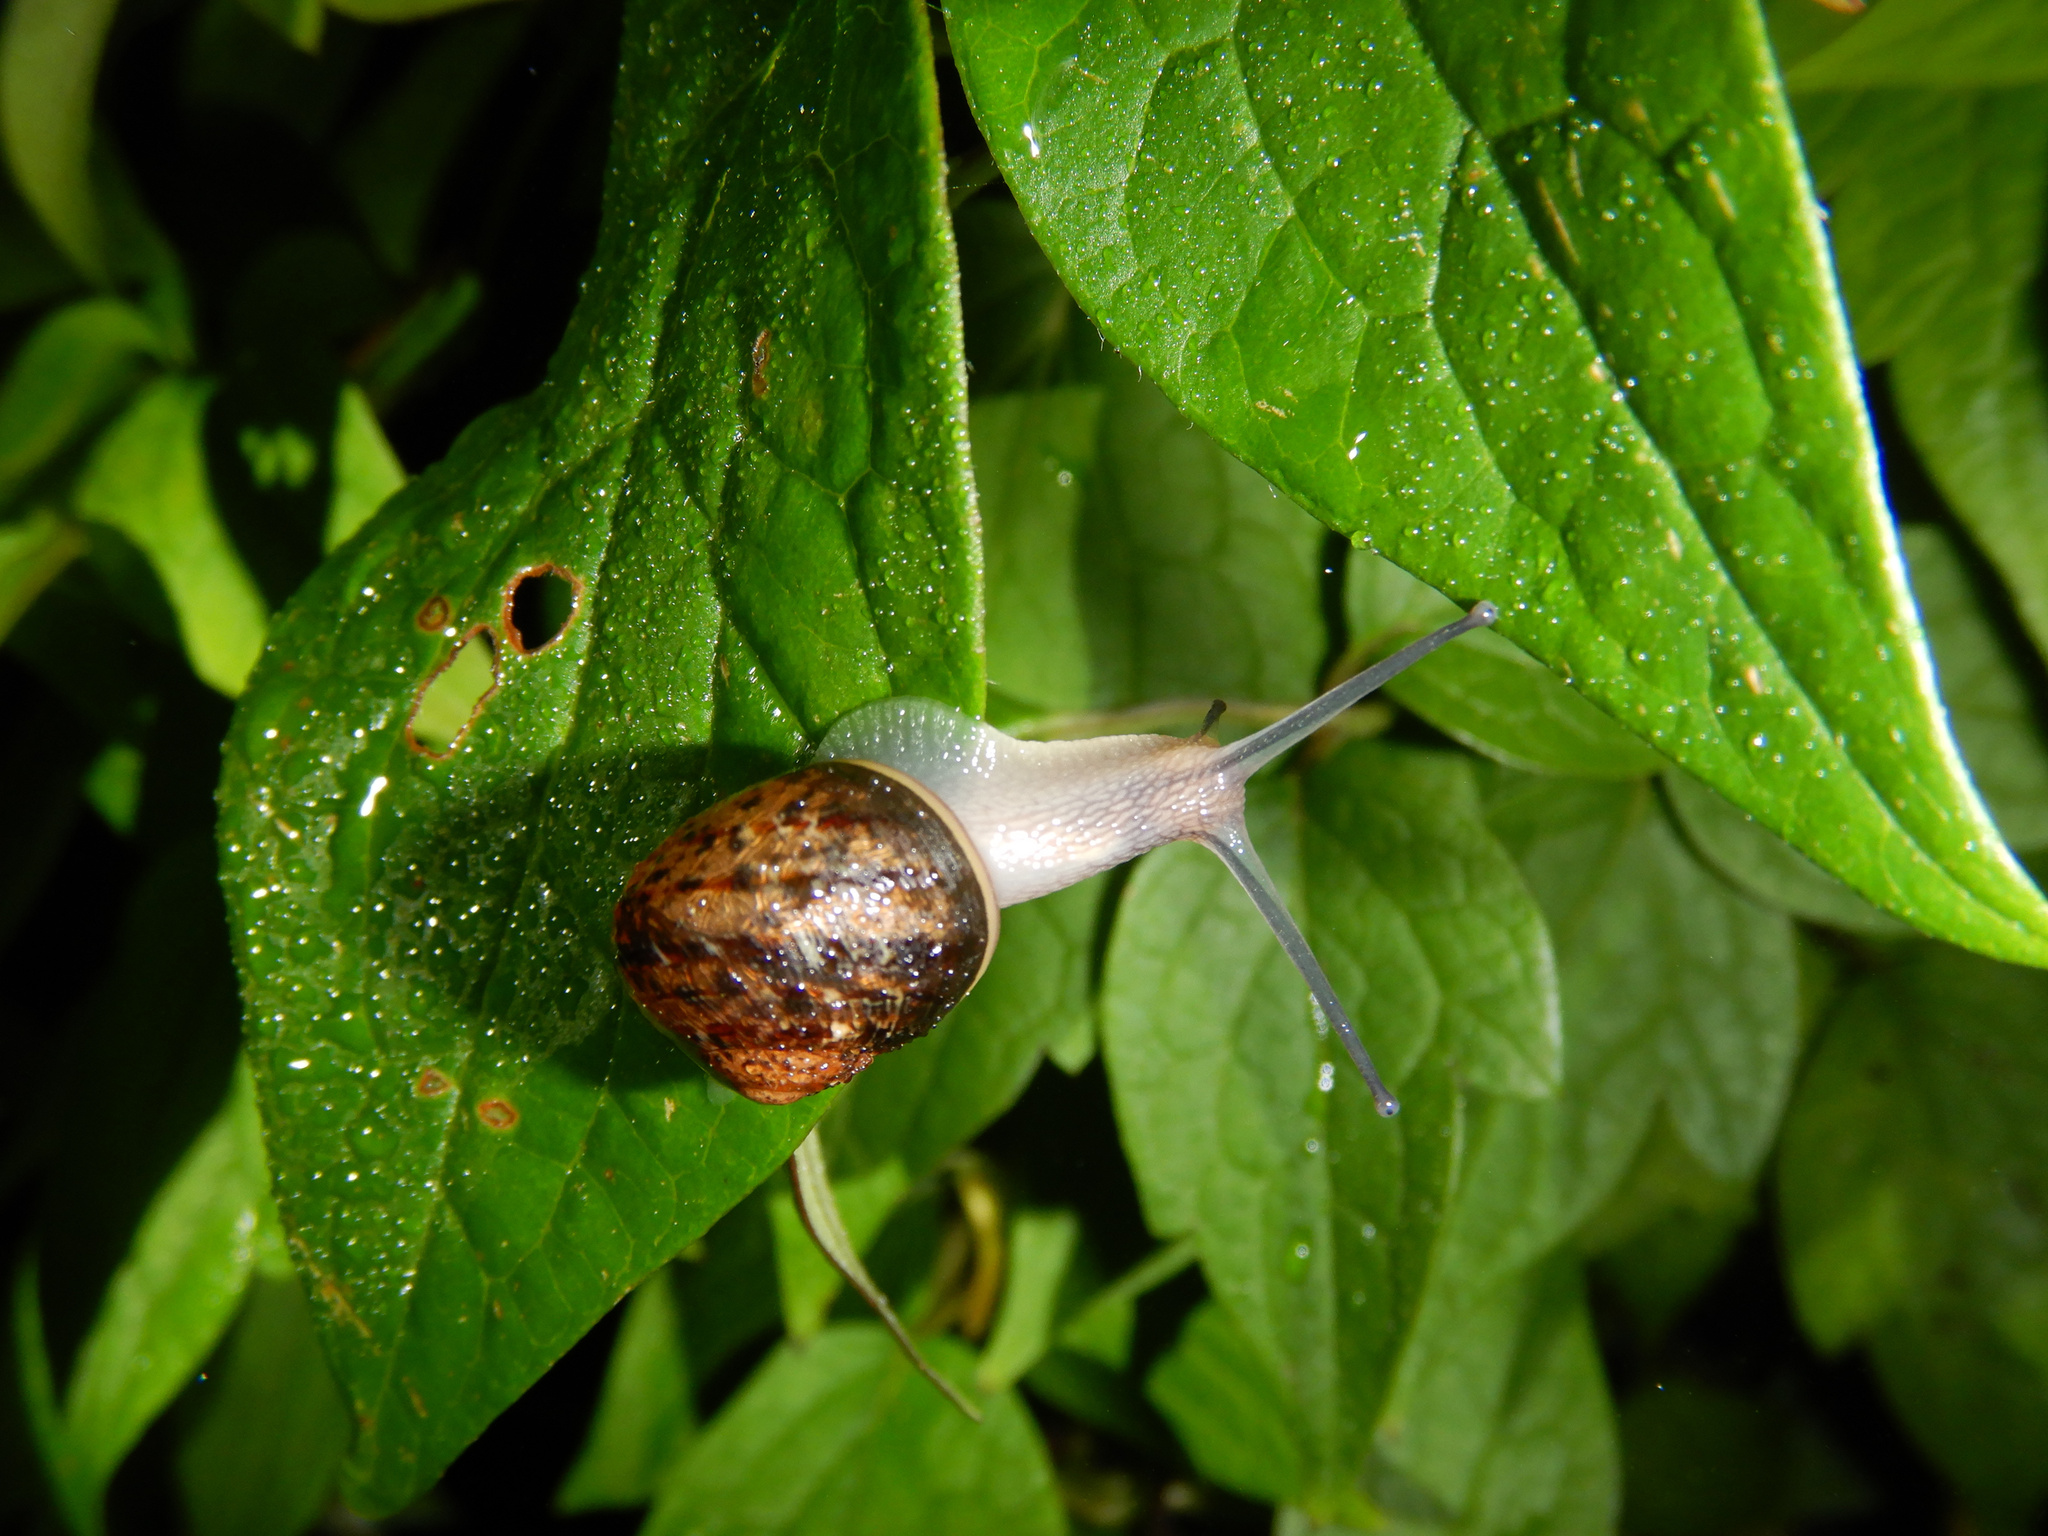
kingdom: Animalia
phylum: Mollusca
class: Gastropoda
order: Stylommatophora
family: Helicidae
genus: Cornu
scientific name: Cornu aspersum
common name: Brown garden snail
